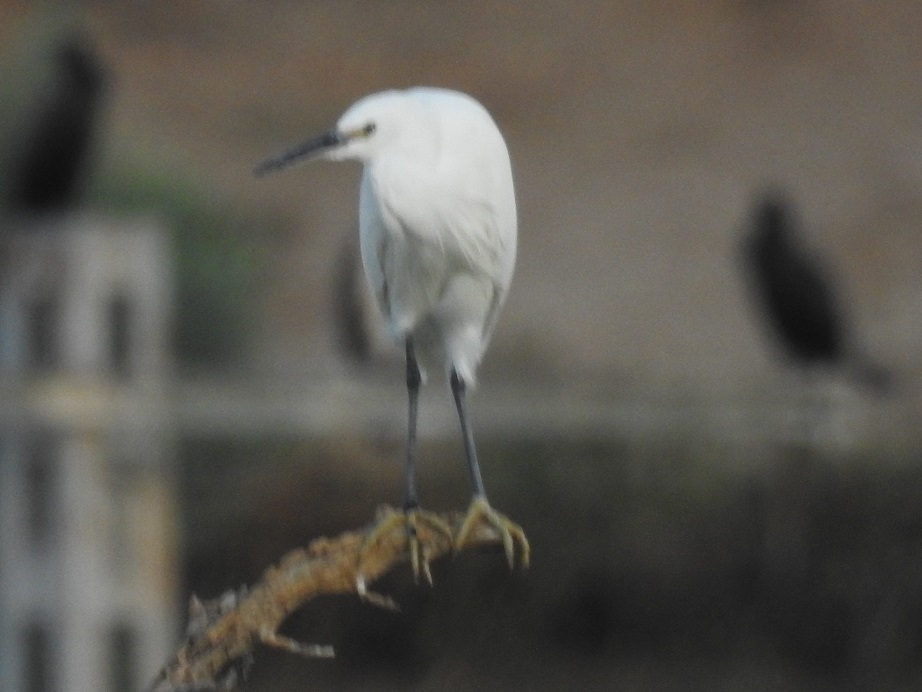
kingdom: Animalia
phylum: Chordata
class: Aves
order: Pelecaniformes
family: Ardeidae
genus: Egretta
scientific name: Egretta garzetta
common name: Little egret
